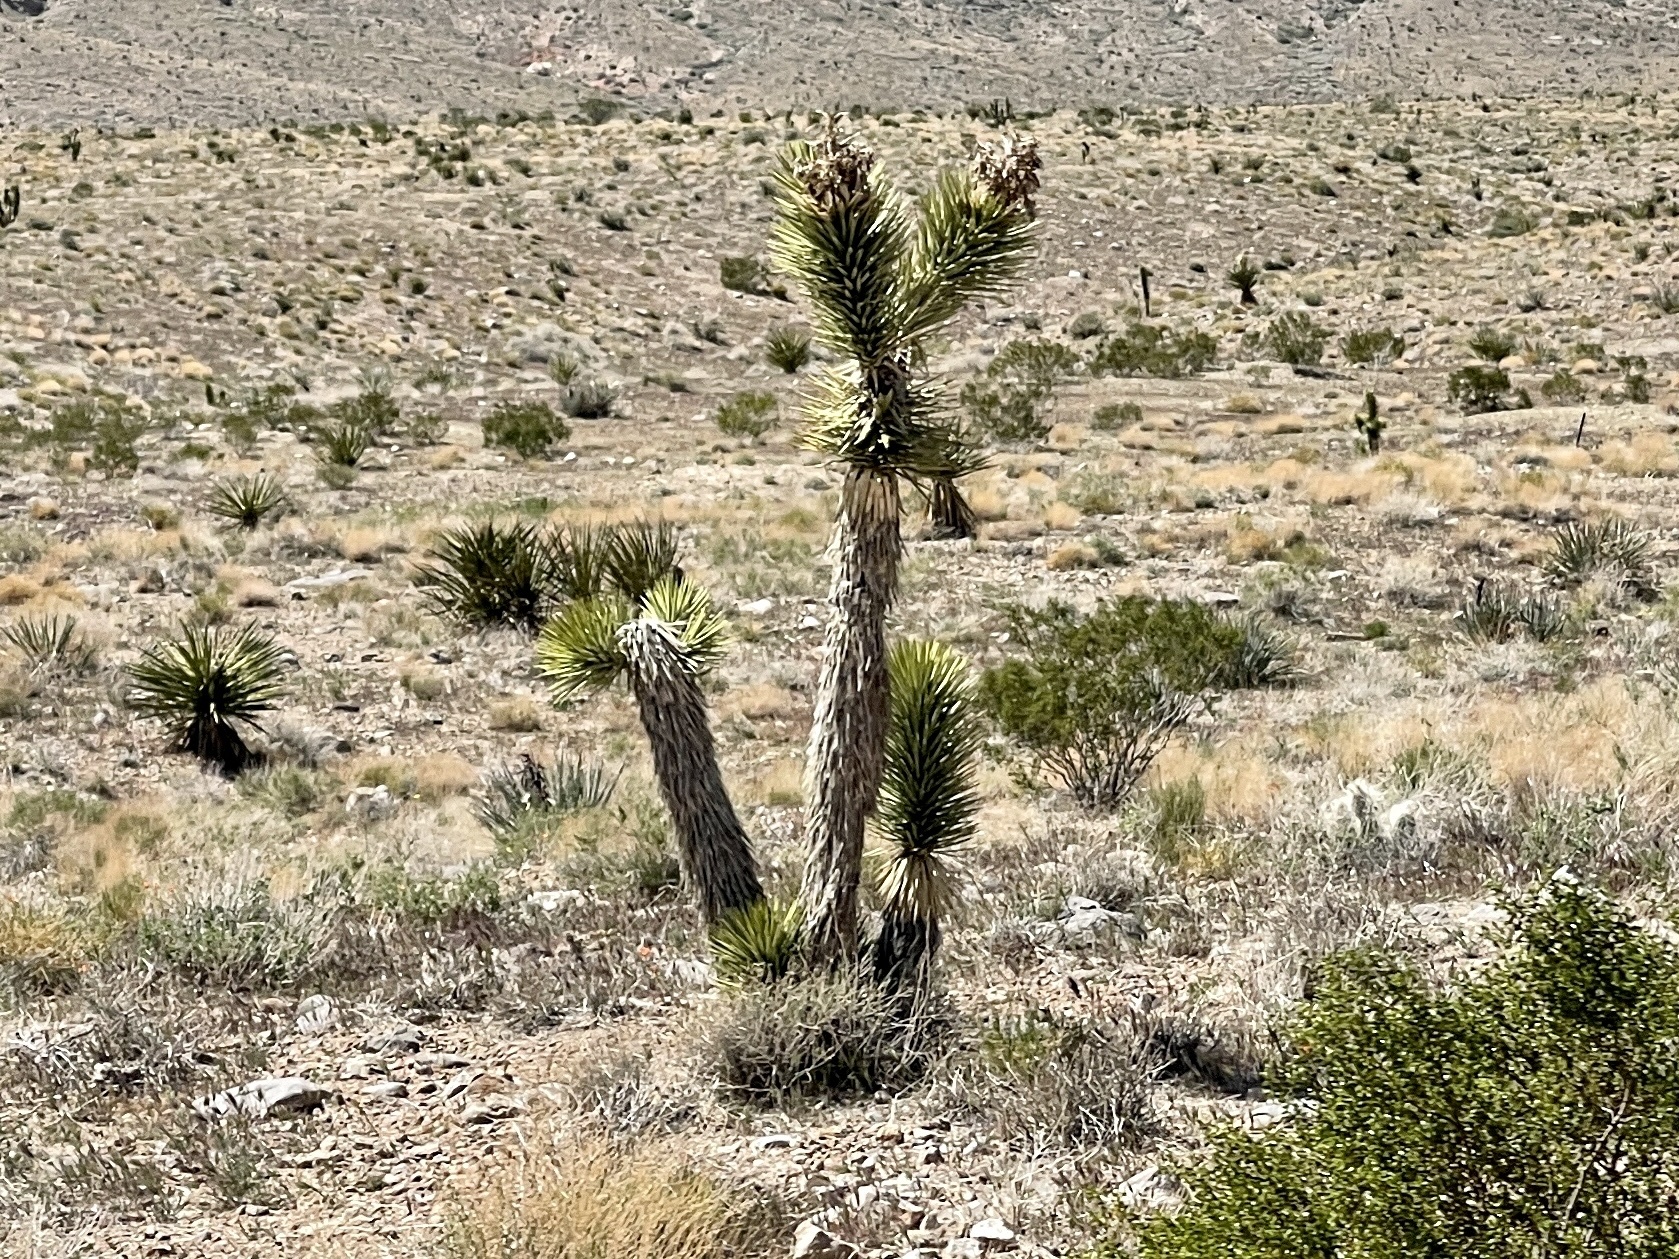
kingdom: Plantae
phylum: Tracheophyta
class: Liliopsida
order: Asparagales
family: Asparagaceae
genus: Yucca
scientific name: Yucca brevifolia
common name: Joshua tree
